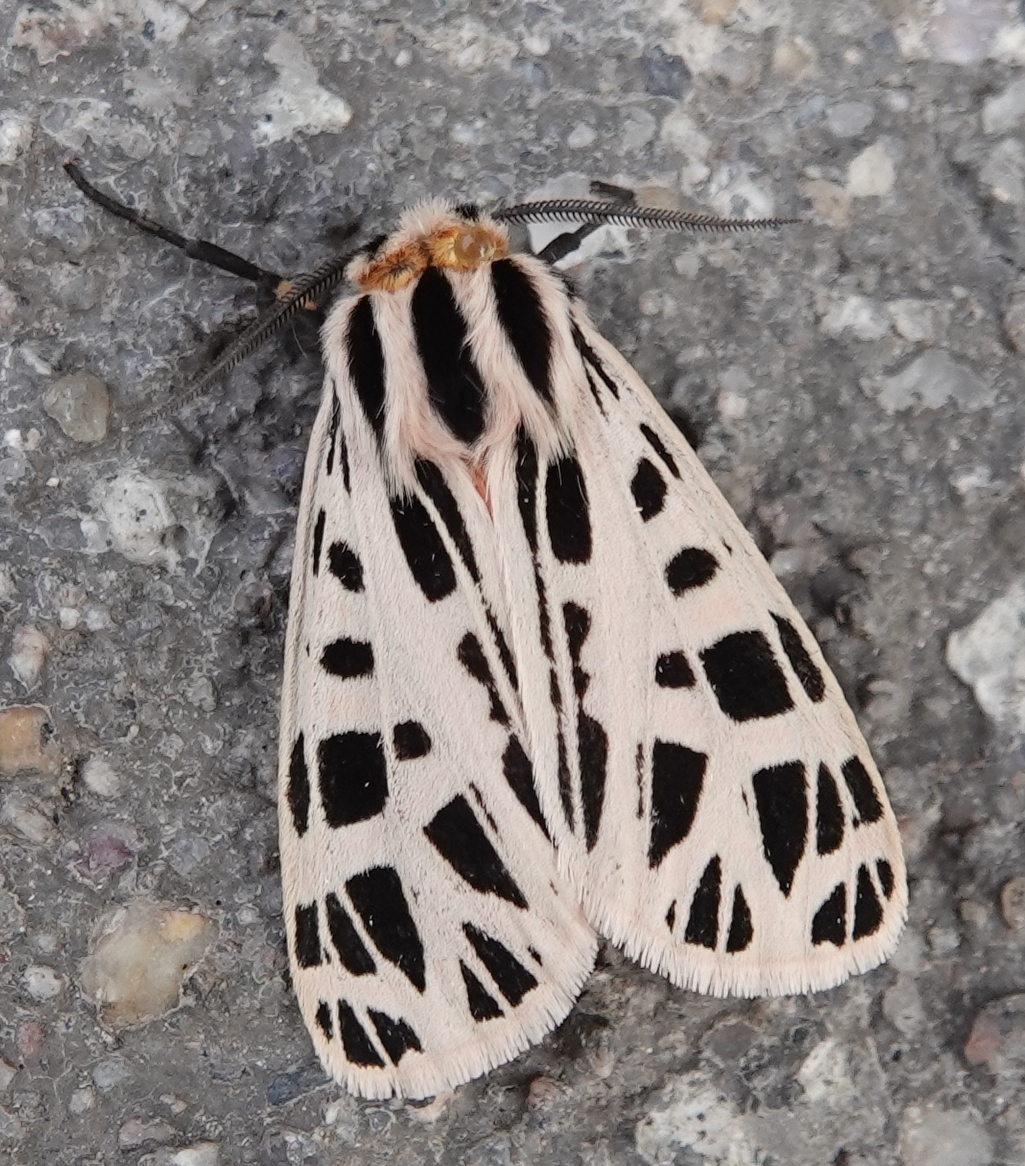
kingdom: Animalia
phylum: Arthropoda
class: Insecta
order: Lepidoptera
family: Erebidae
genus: Grammia
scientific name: Grammia parthenice
